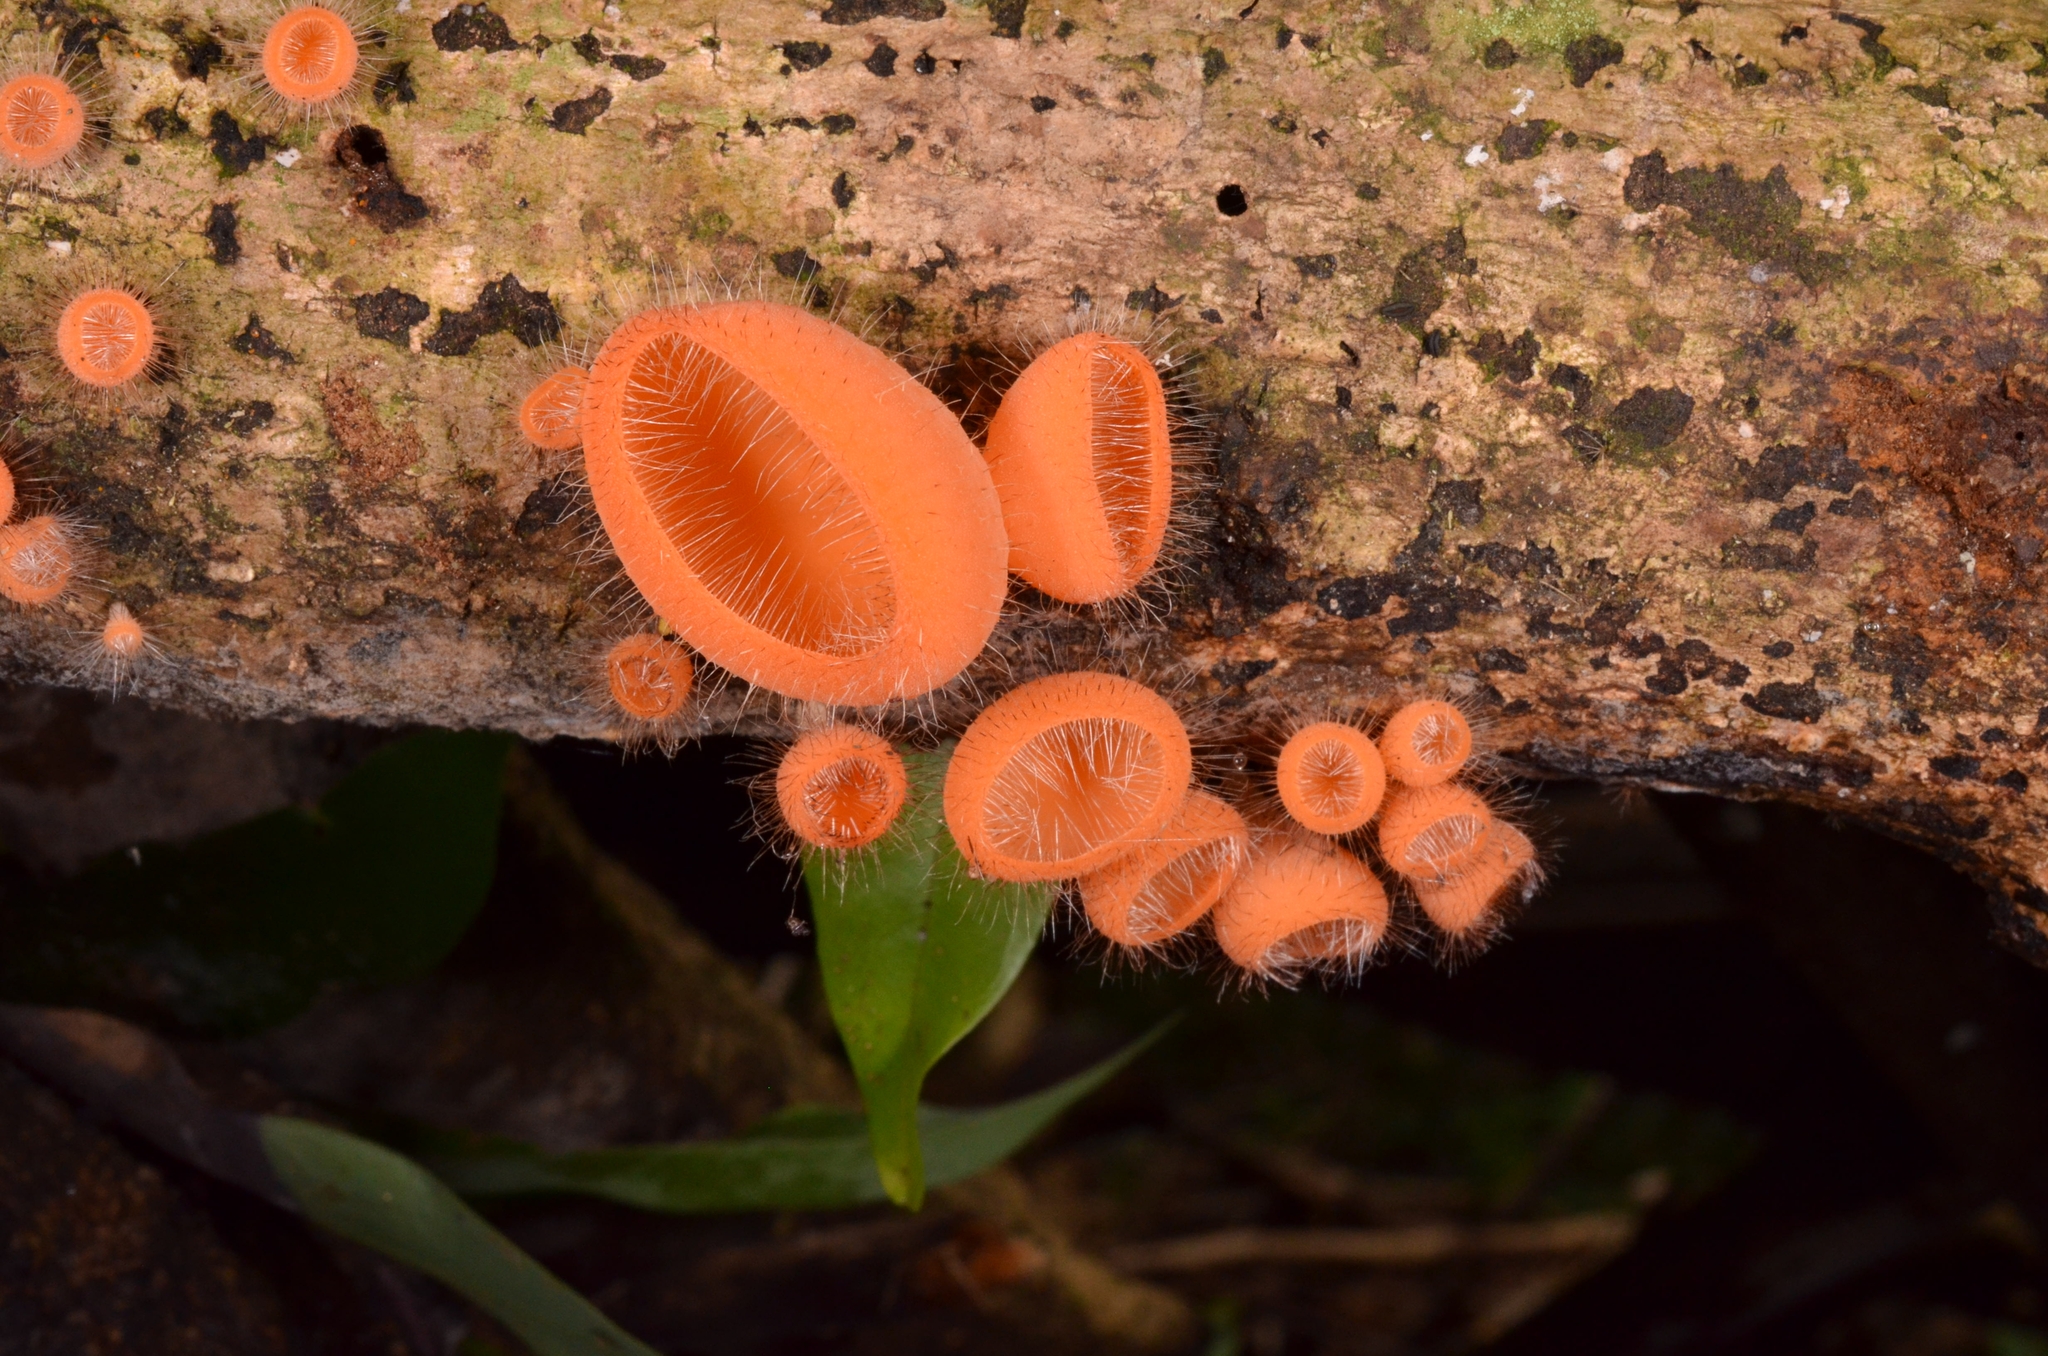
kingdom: Fungi
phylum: Ascomycota
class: Pezizomycetes
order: Pezizales
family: Sarcoscyphaceae
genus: Cookeina
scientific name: Cookeina tricholoma
